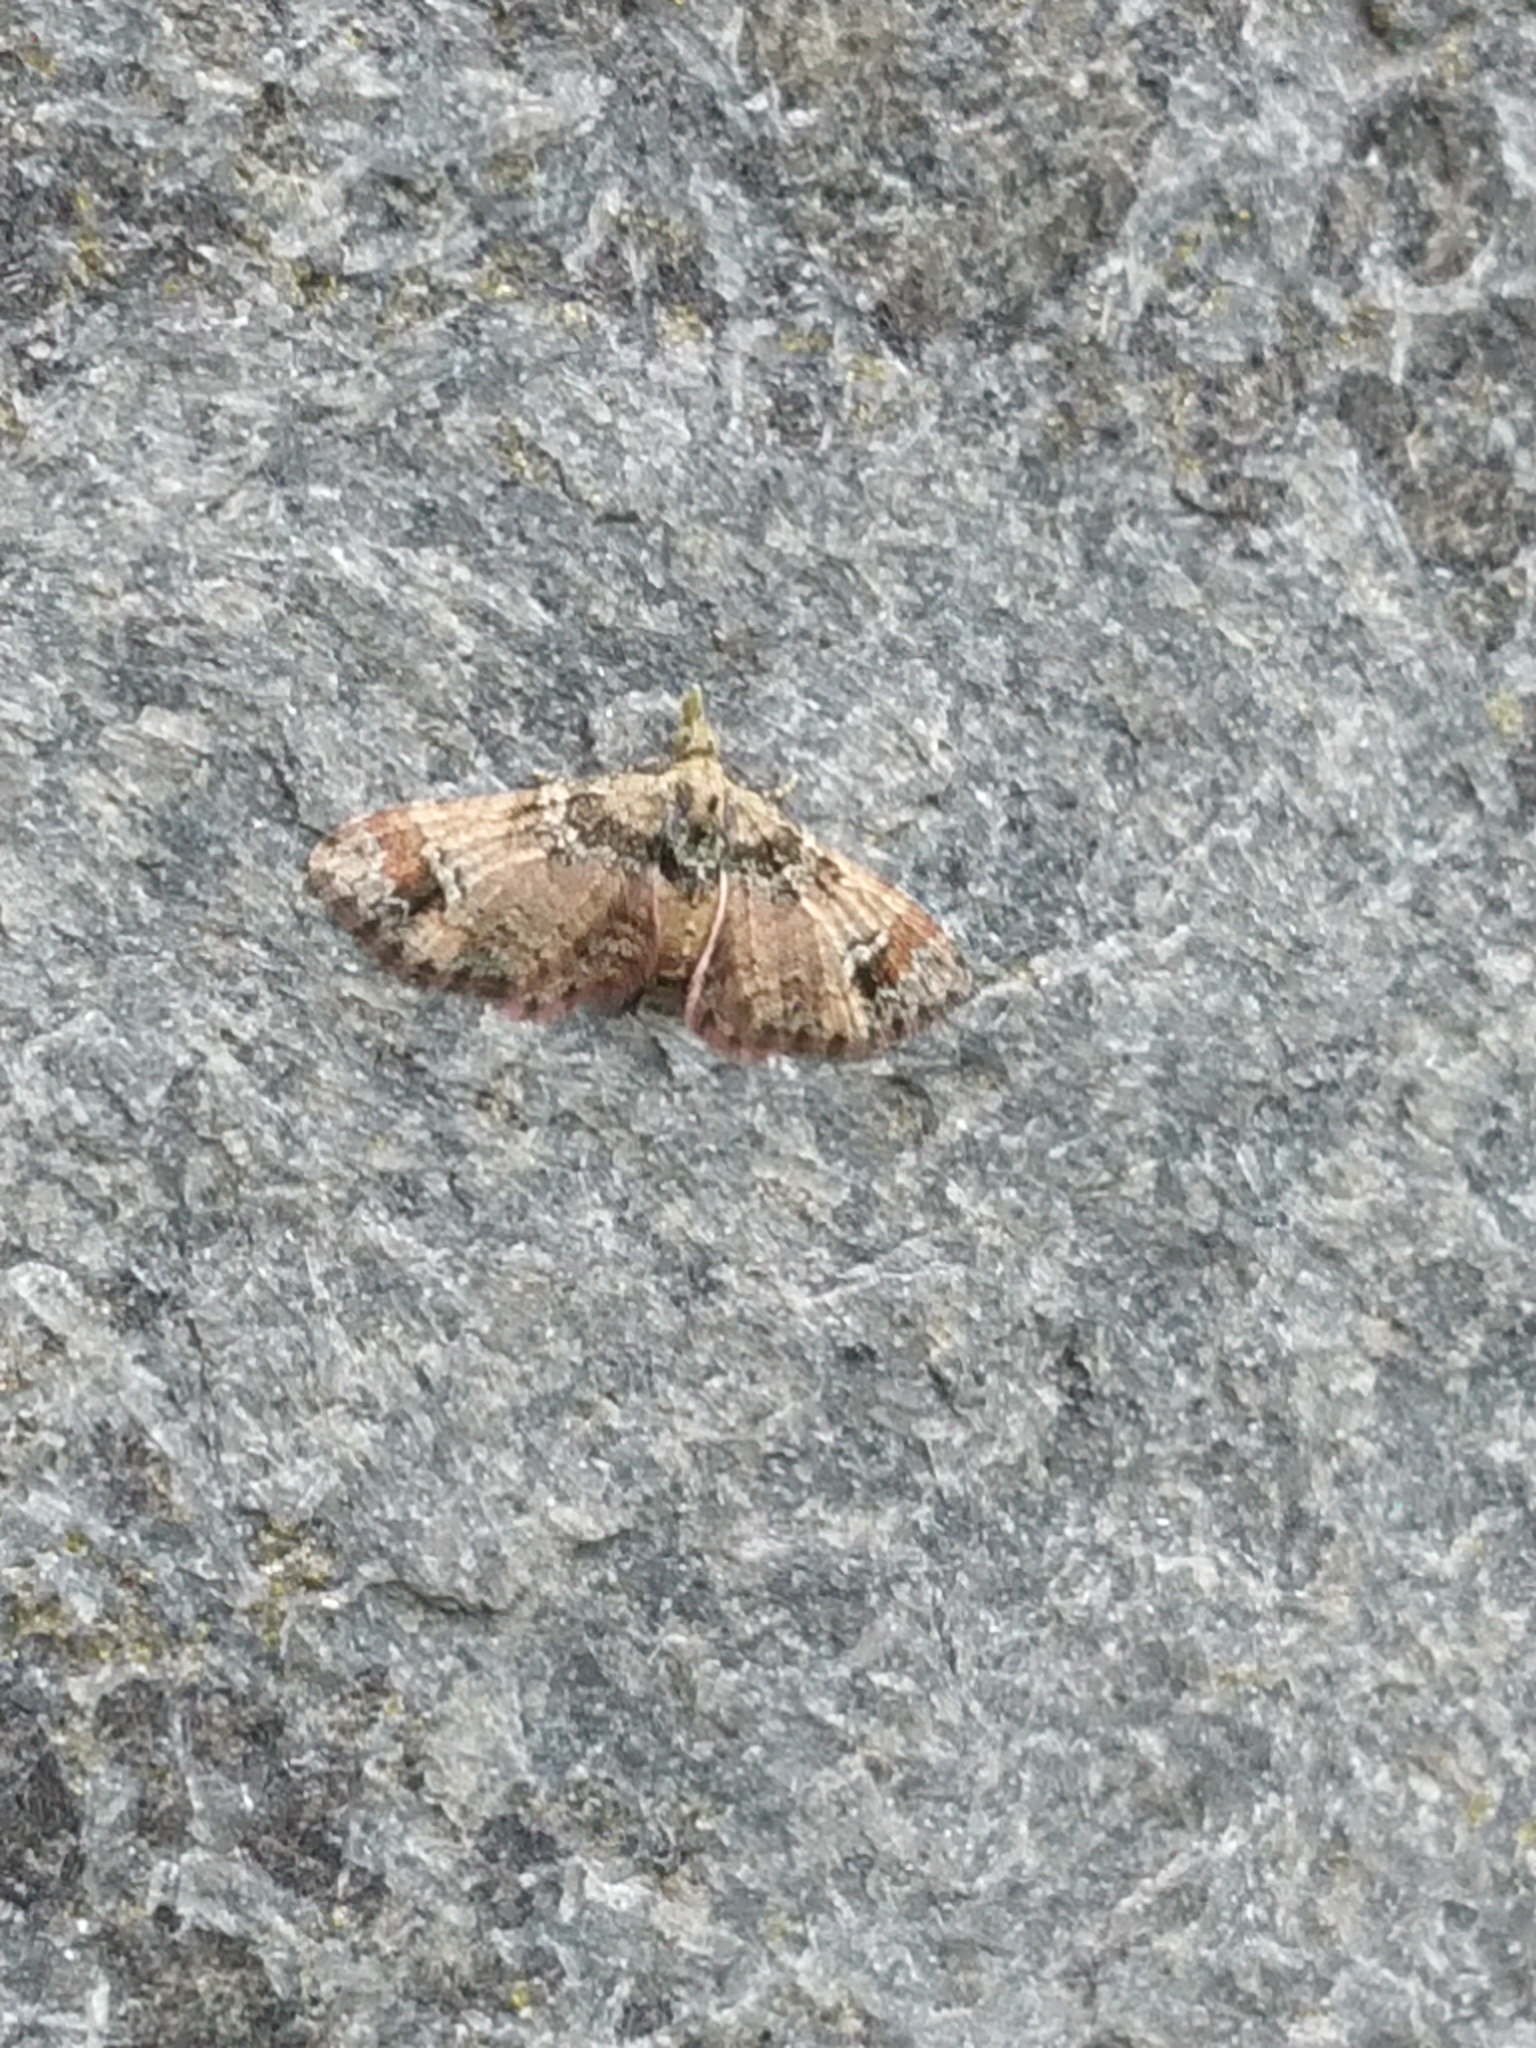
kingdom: Animalia
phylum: Arthropoda
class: Insecta
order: Lepidoptera
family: Geometridae
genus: Pasiphila
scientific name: Pasiphila sandycias
